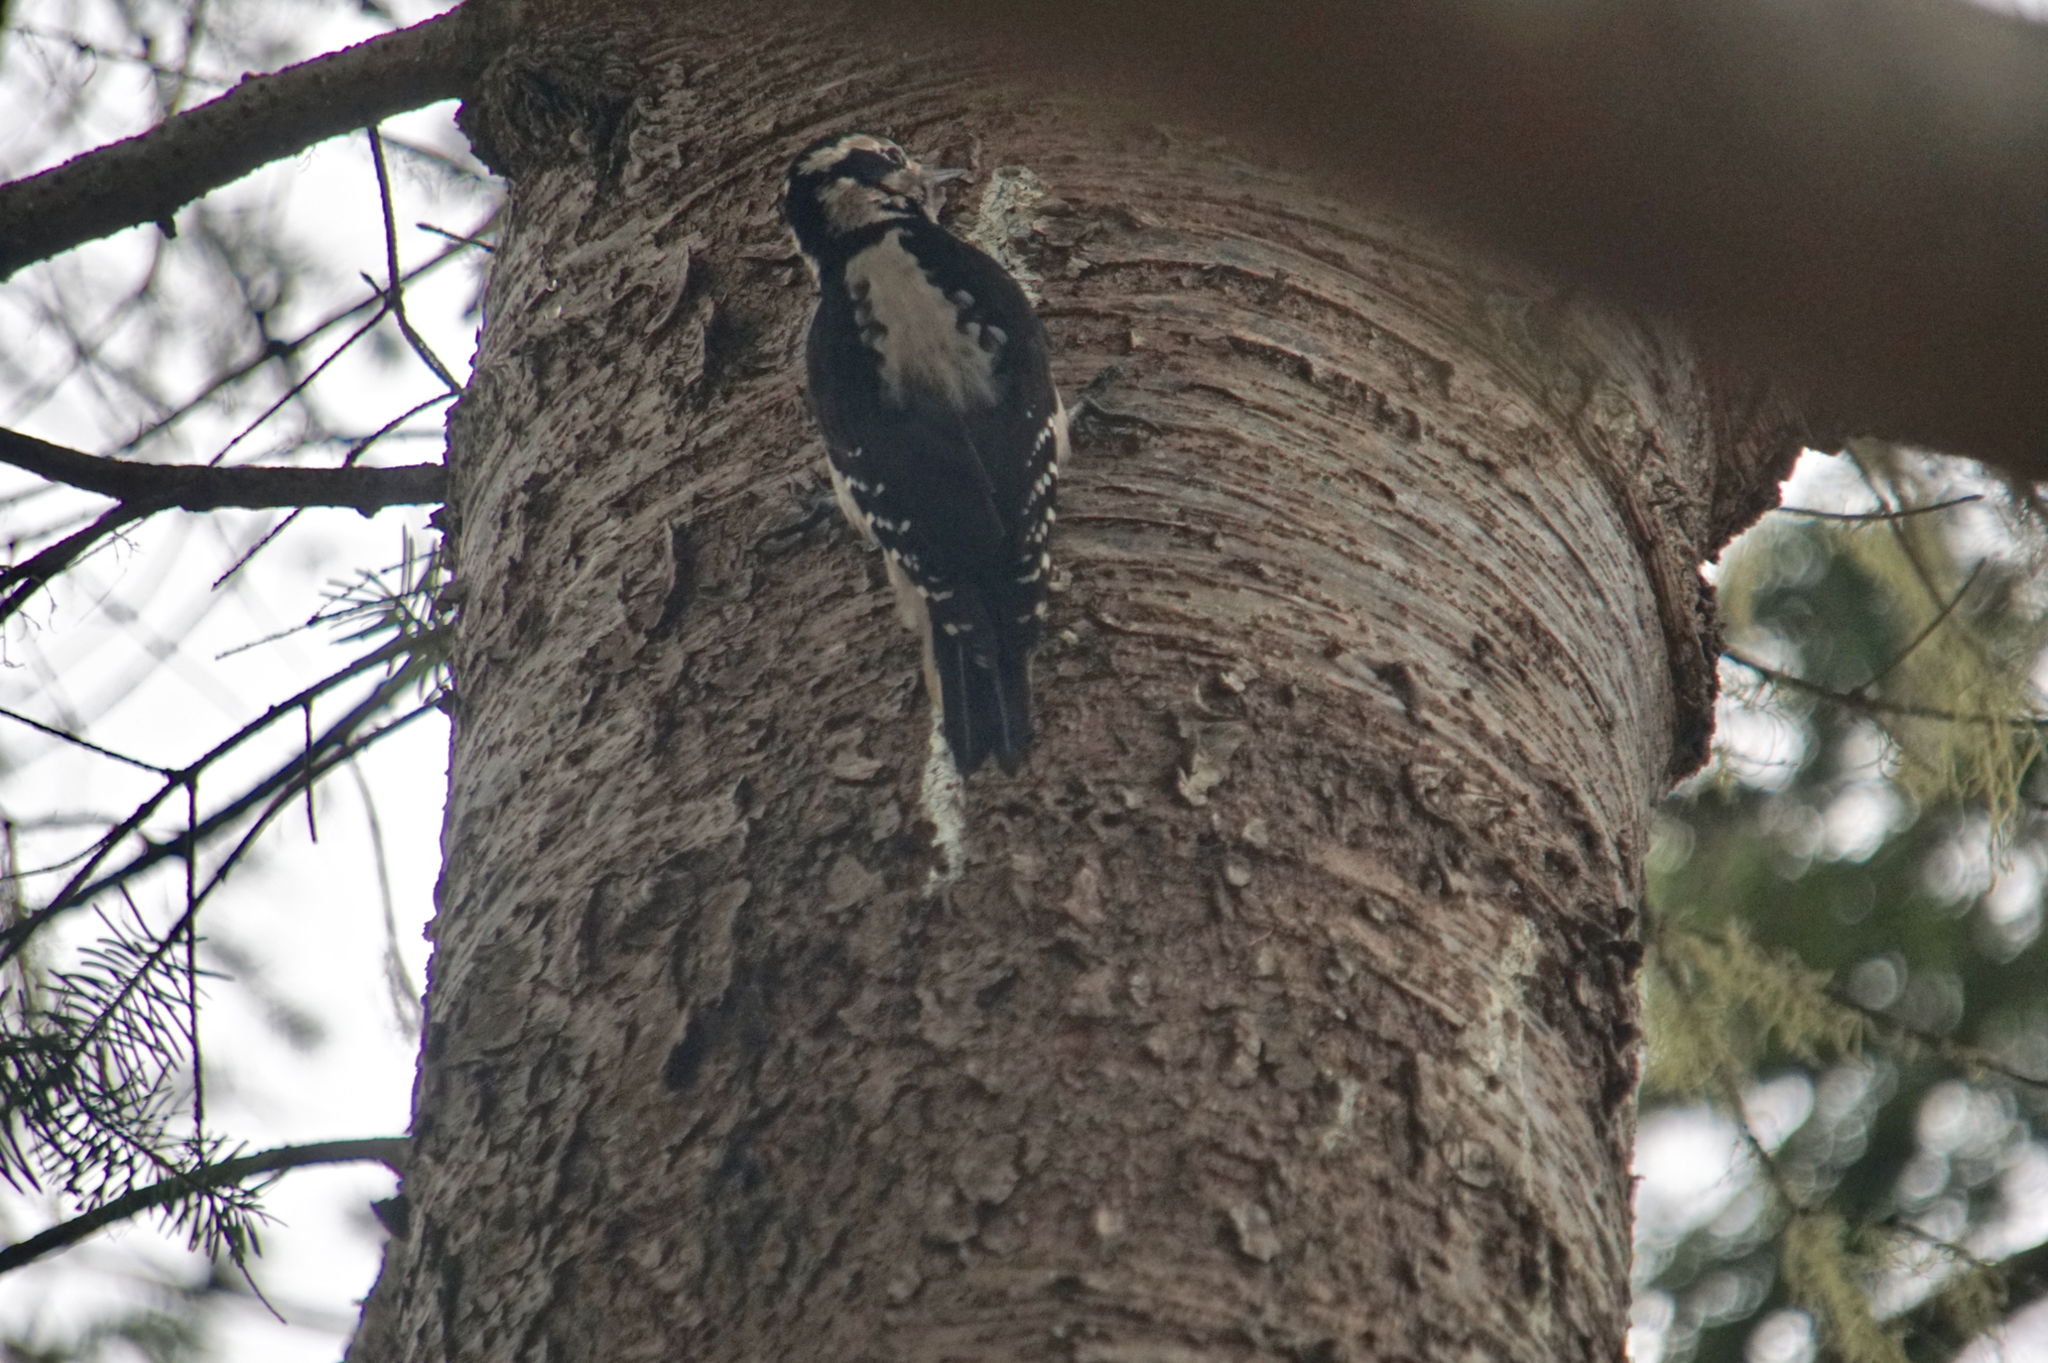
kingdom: Animalia
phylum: Chordata
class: Aves
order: Piciformes
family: Picidae
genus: Dryobates
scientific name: Dryobates pubescens
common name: Downy woodpecker
